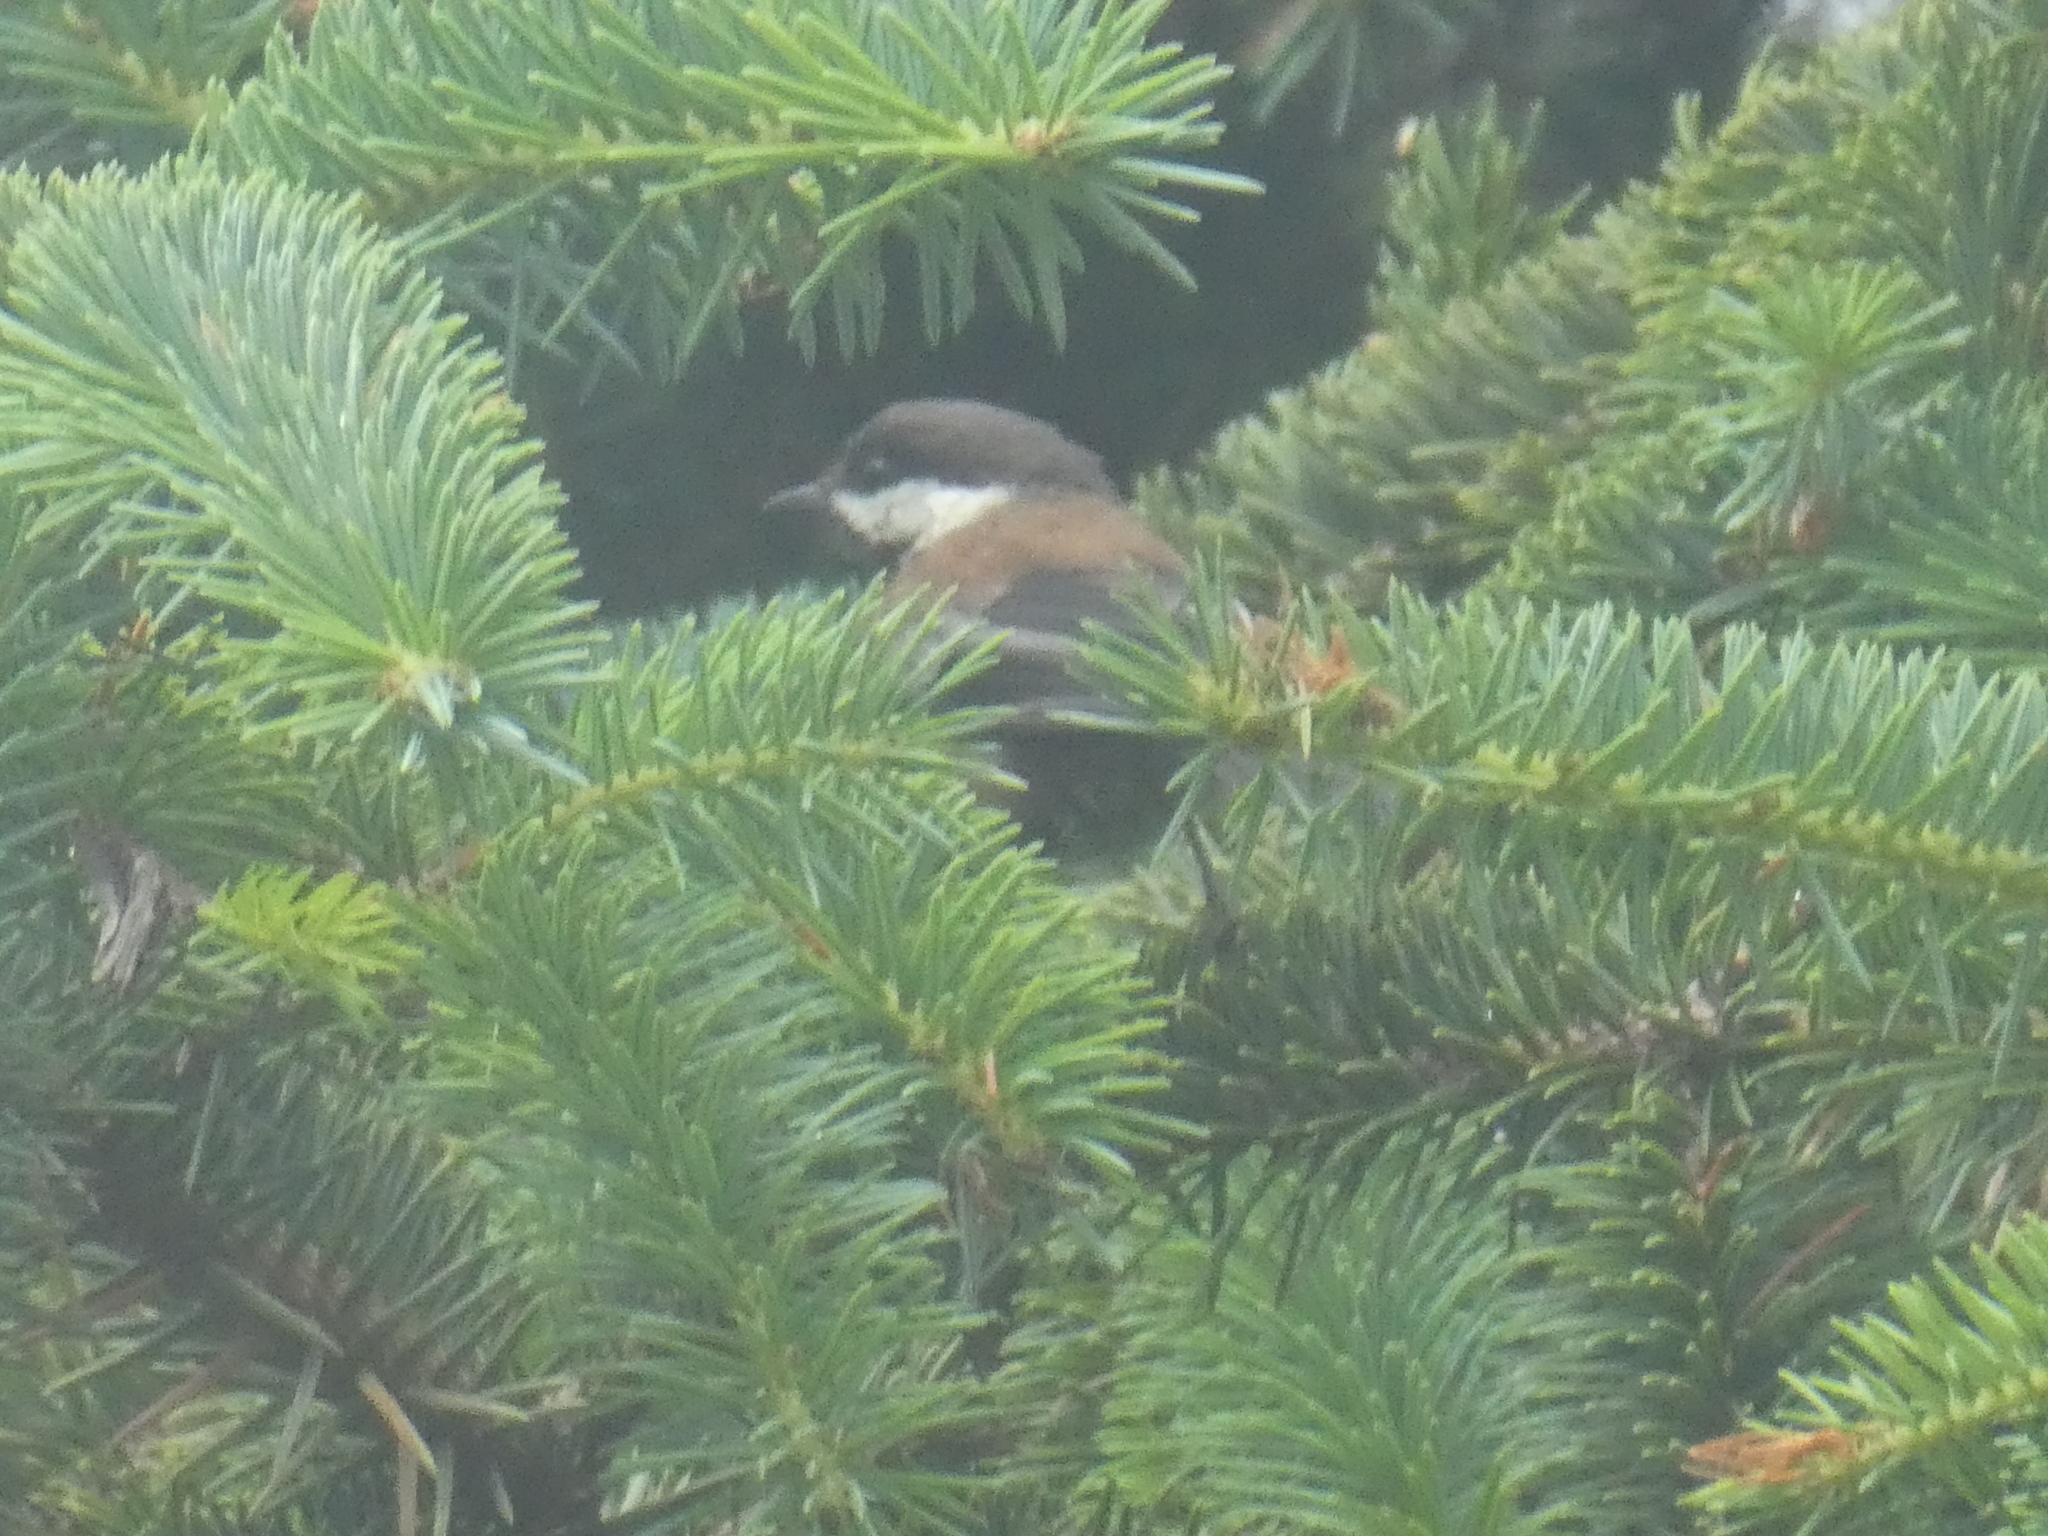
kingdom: Animalia
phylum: Chordata
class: Aves
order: Passeriformes
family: Paridae
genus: Poecile
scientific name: Poecile rufescens
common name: Chestnut-backed chickadee
